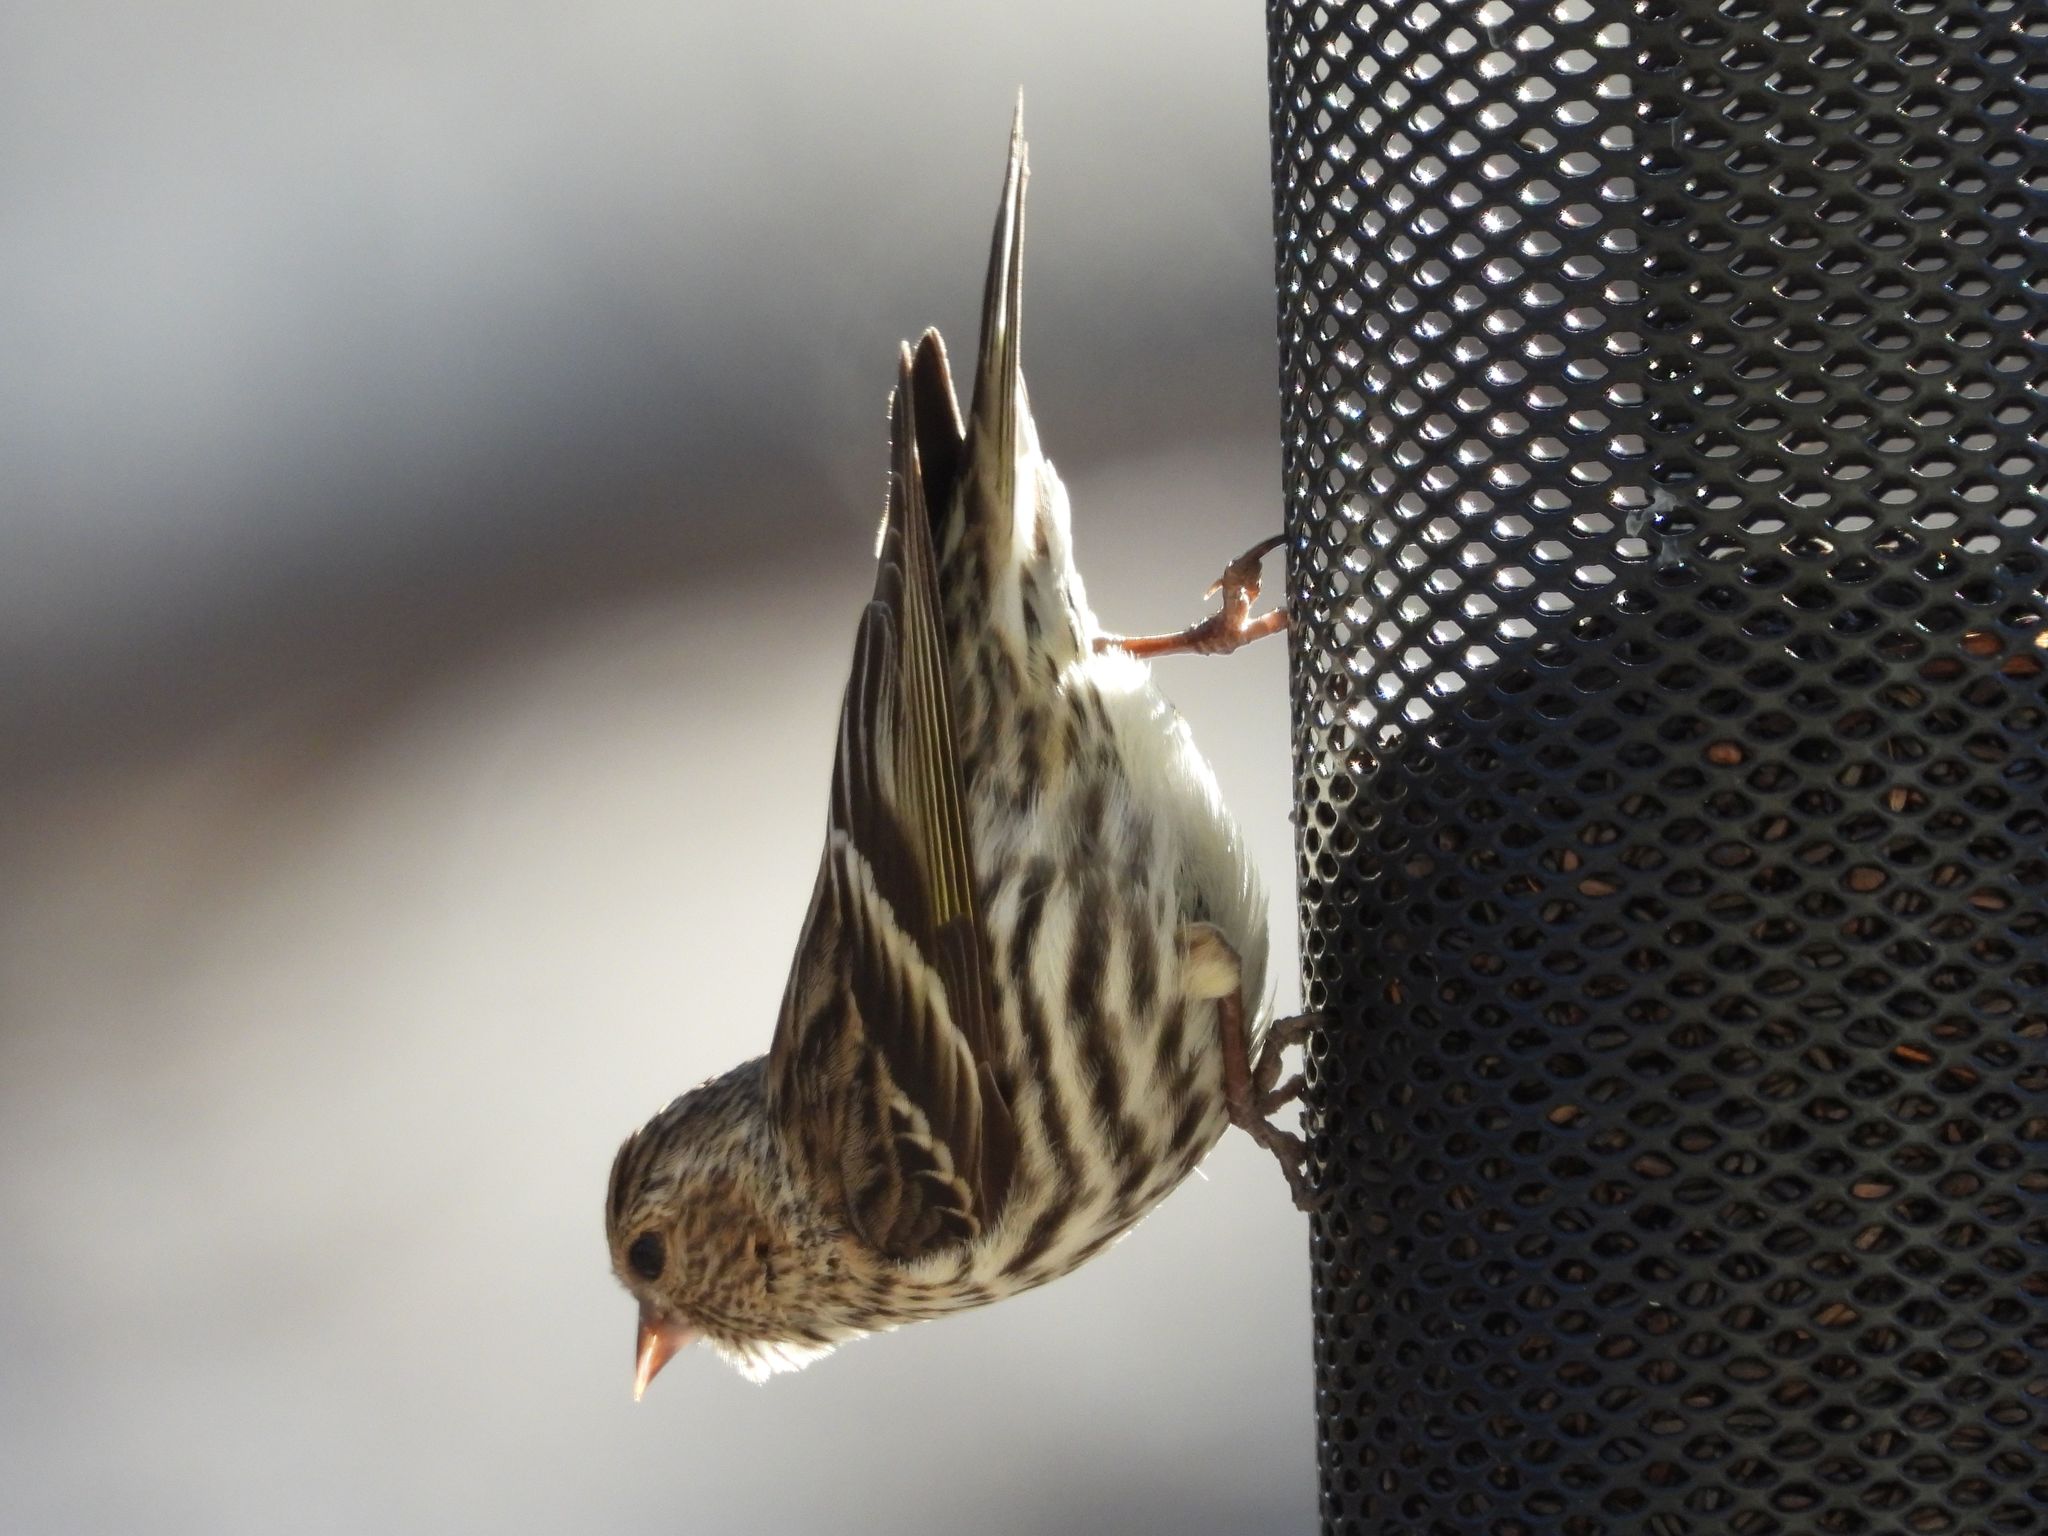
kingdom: Animalia
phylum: Chordata
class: Aves
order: Passeriformes
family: Fringillidae
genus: Spinus
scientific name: Spinus pinus
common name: Pine siskin
